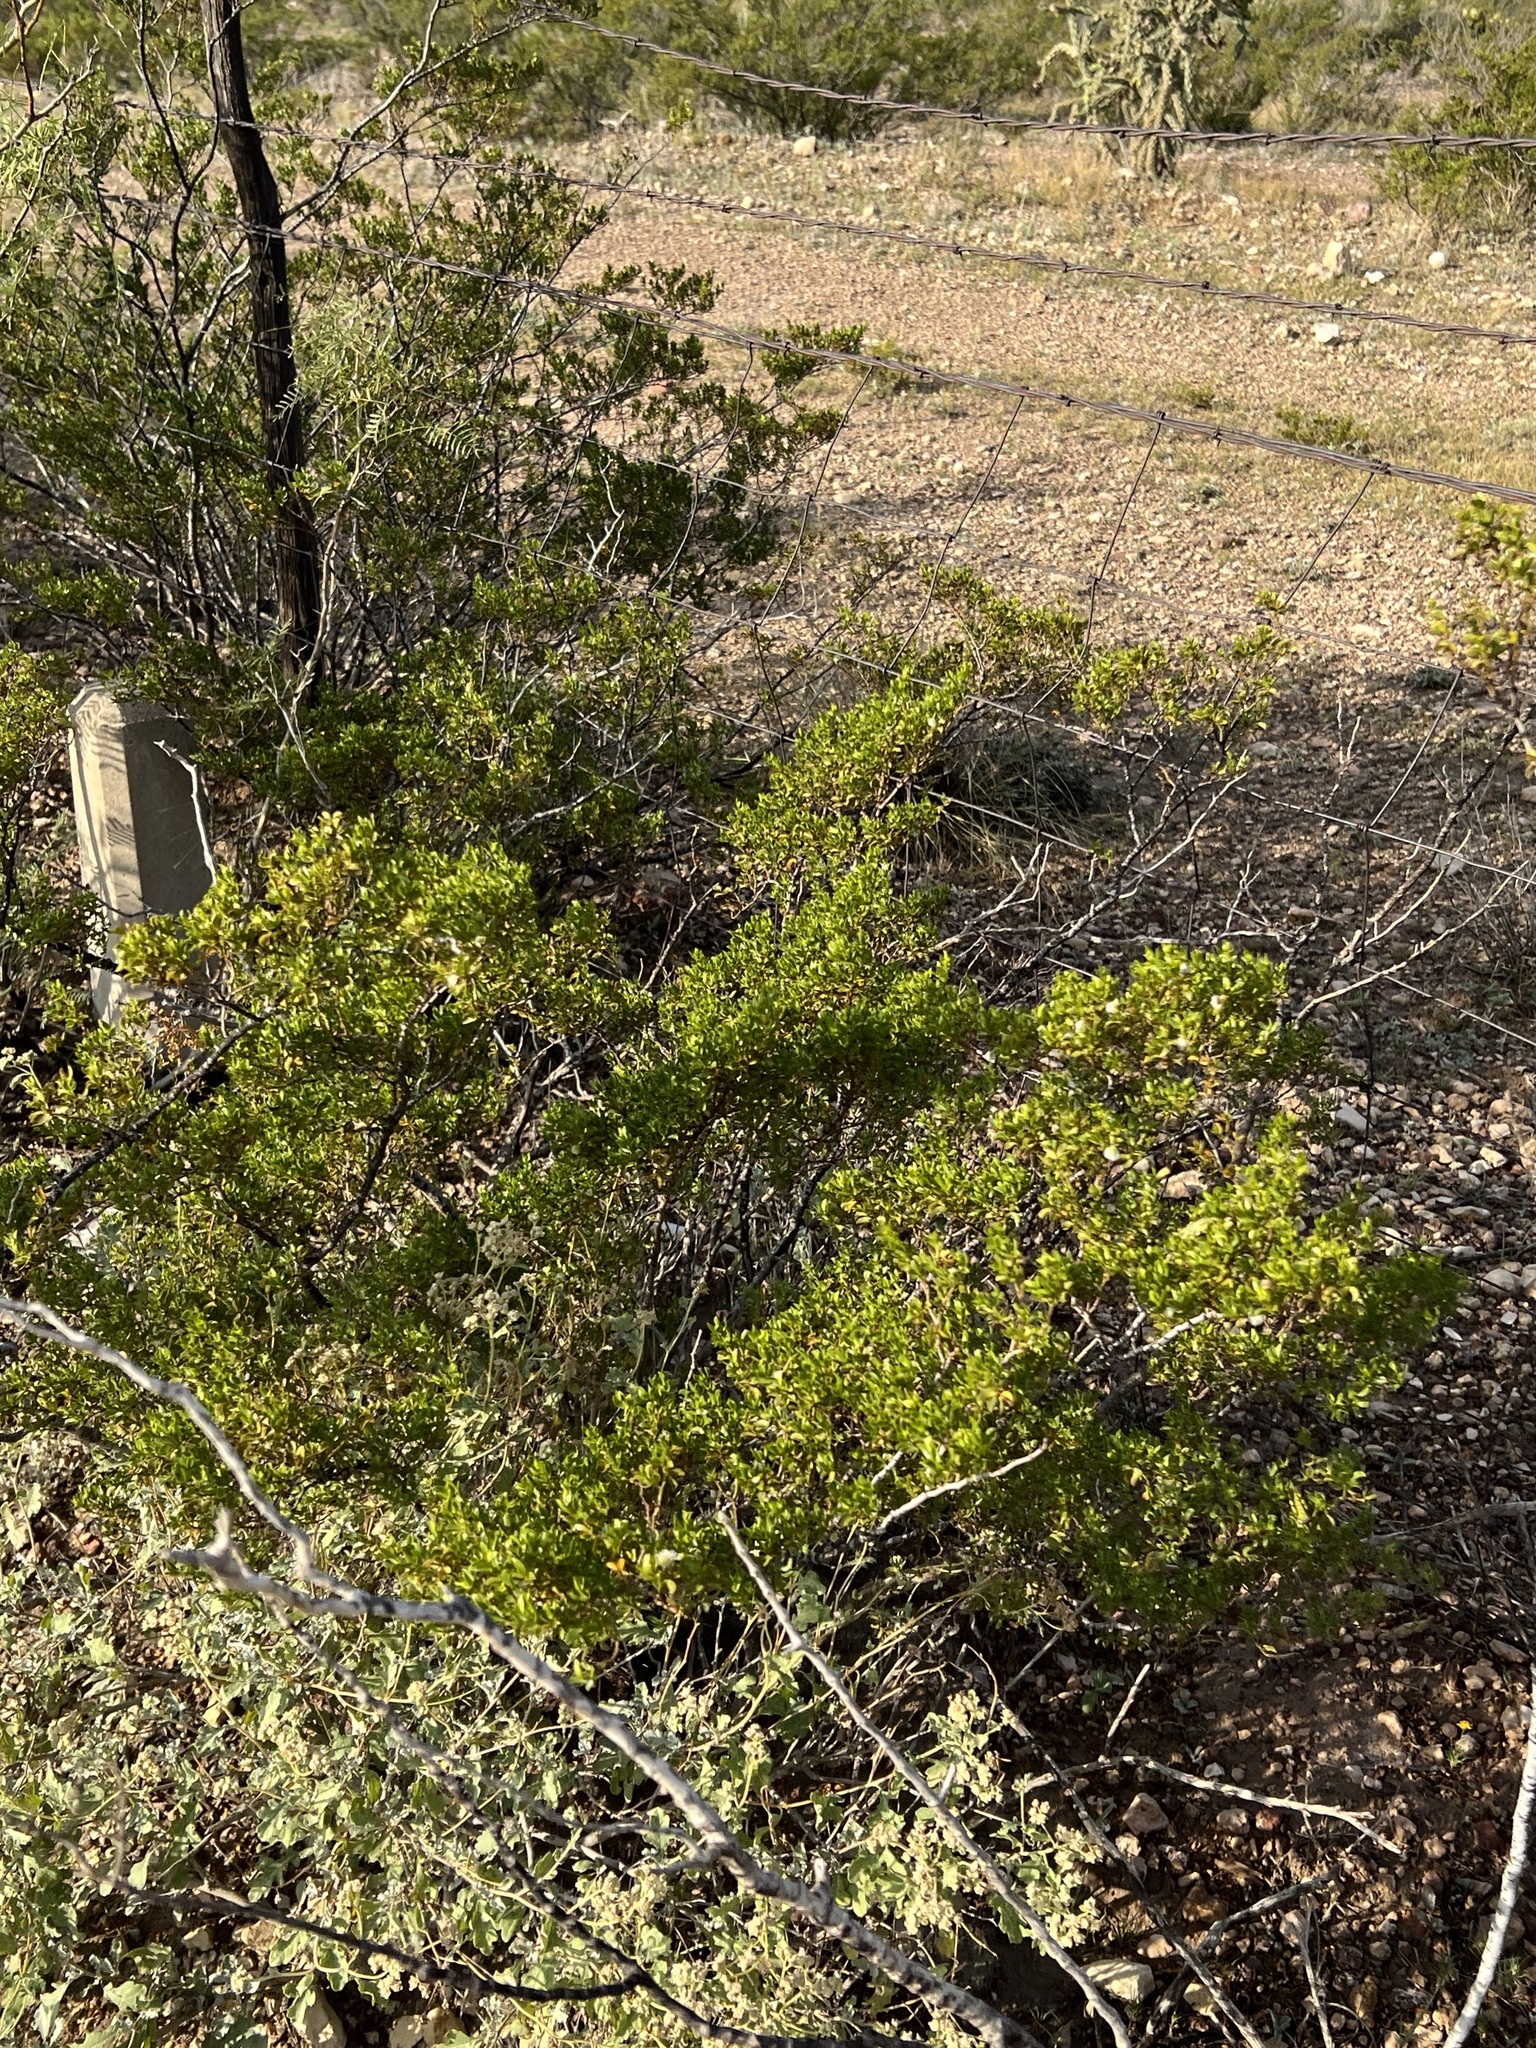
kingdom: Plantae
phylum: Tracheophyta
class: Magnoliopsida
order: Zygophyllales
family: Zygophyllaceae
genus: Larrea
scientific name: Larrea tridentata
